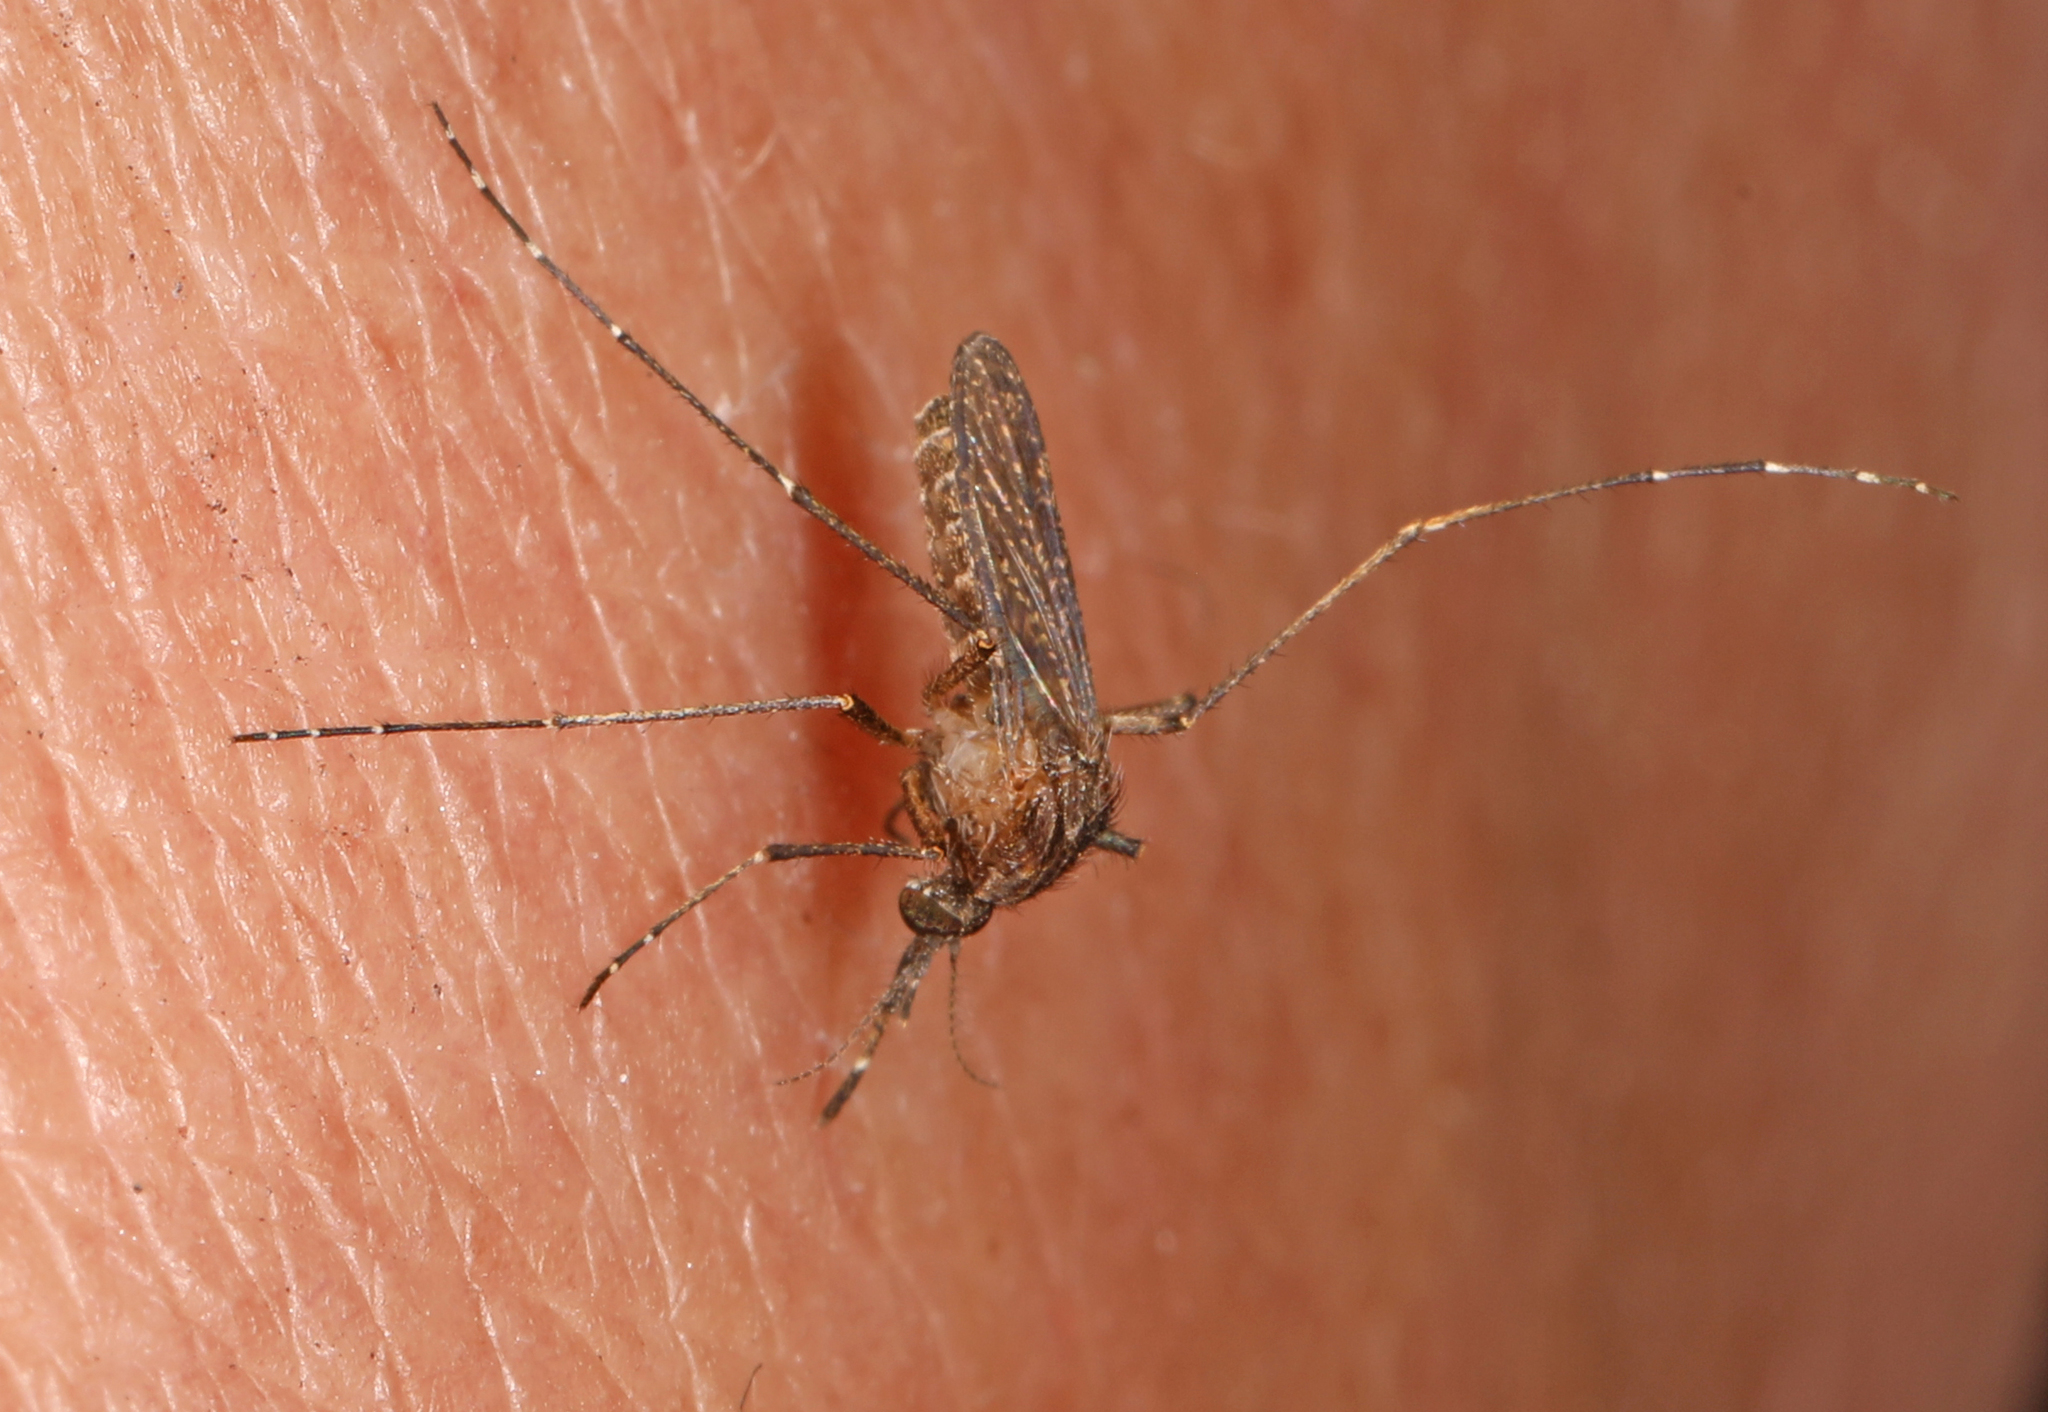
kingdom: Animalia
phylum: Arthropoda
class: Insecta
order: Diptera
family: Culicidae
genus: Mansonia
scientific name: Mansonia titillans
